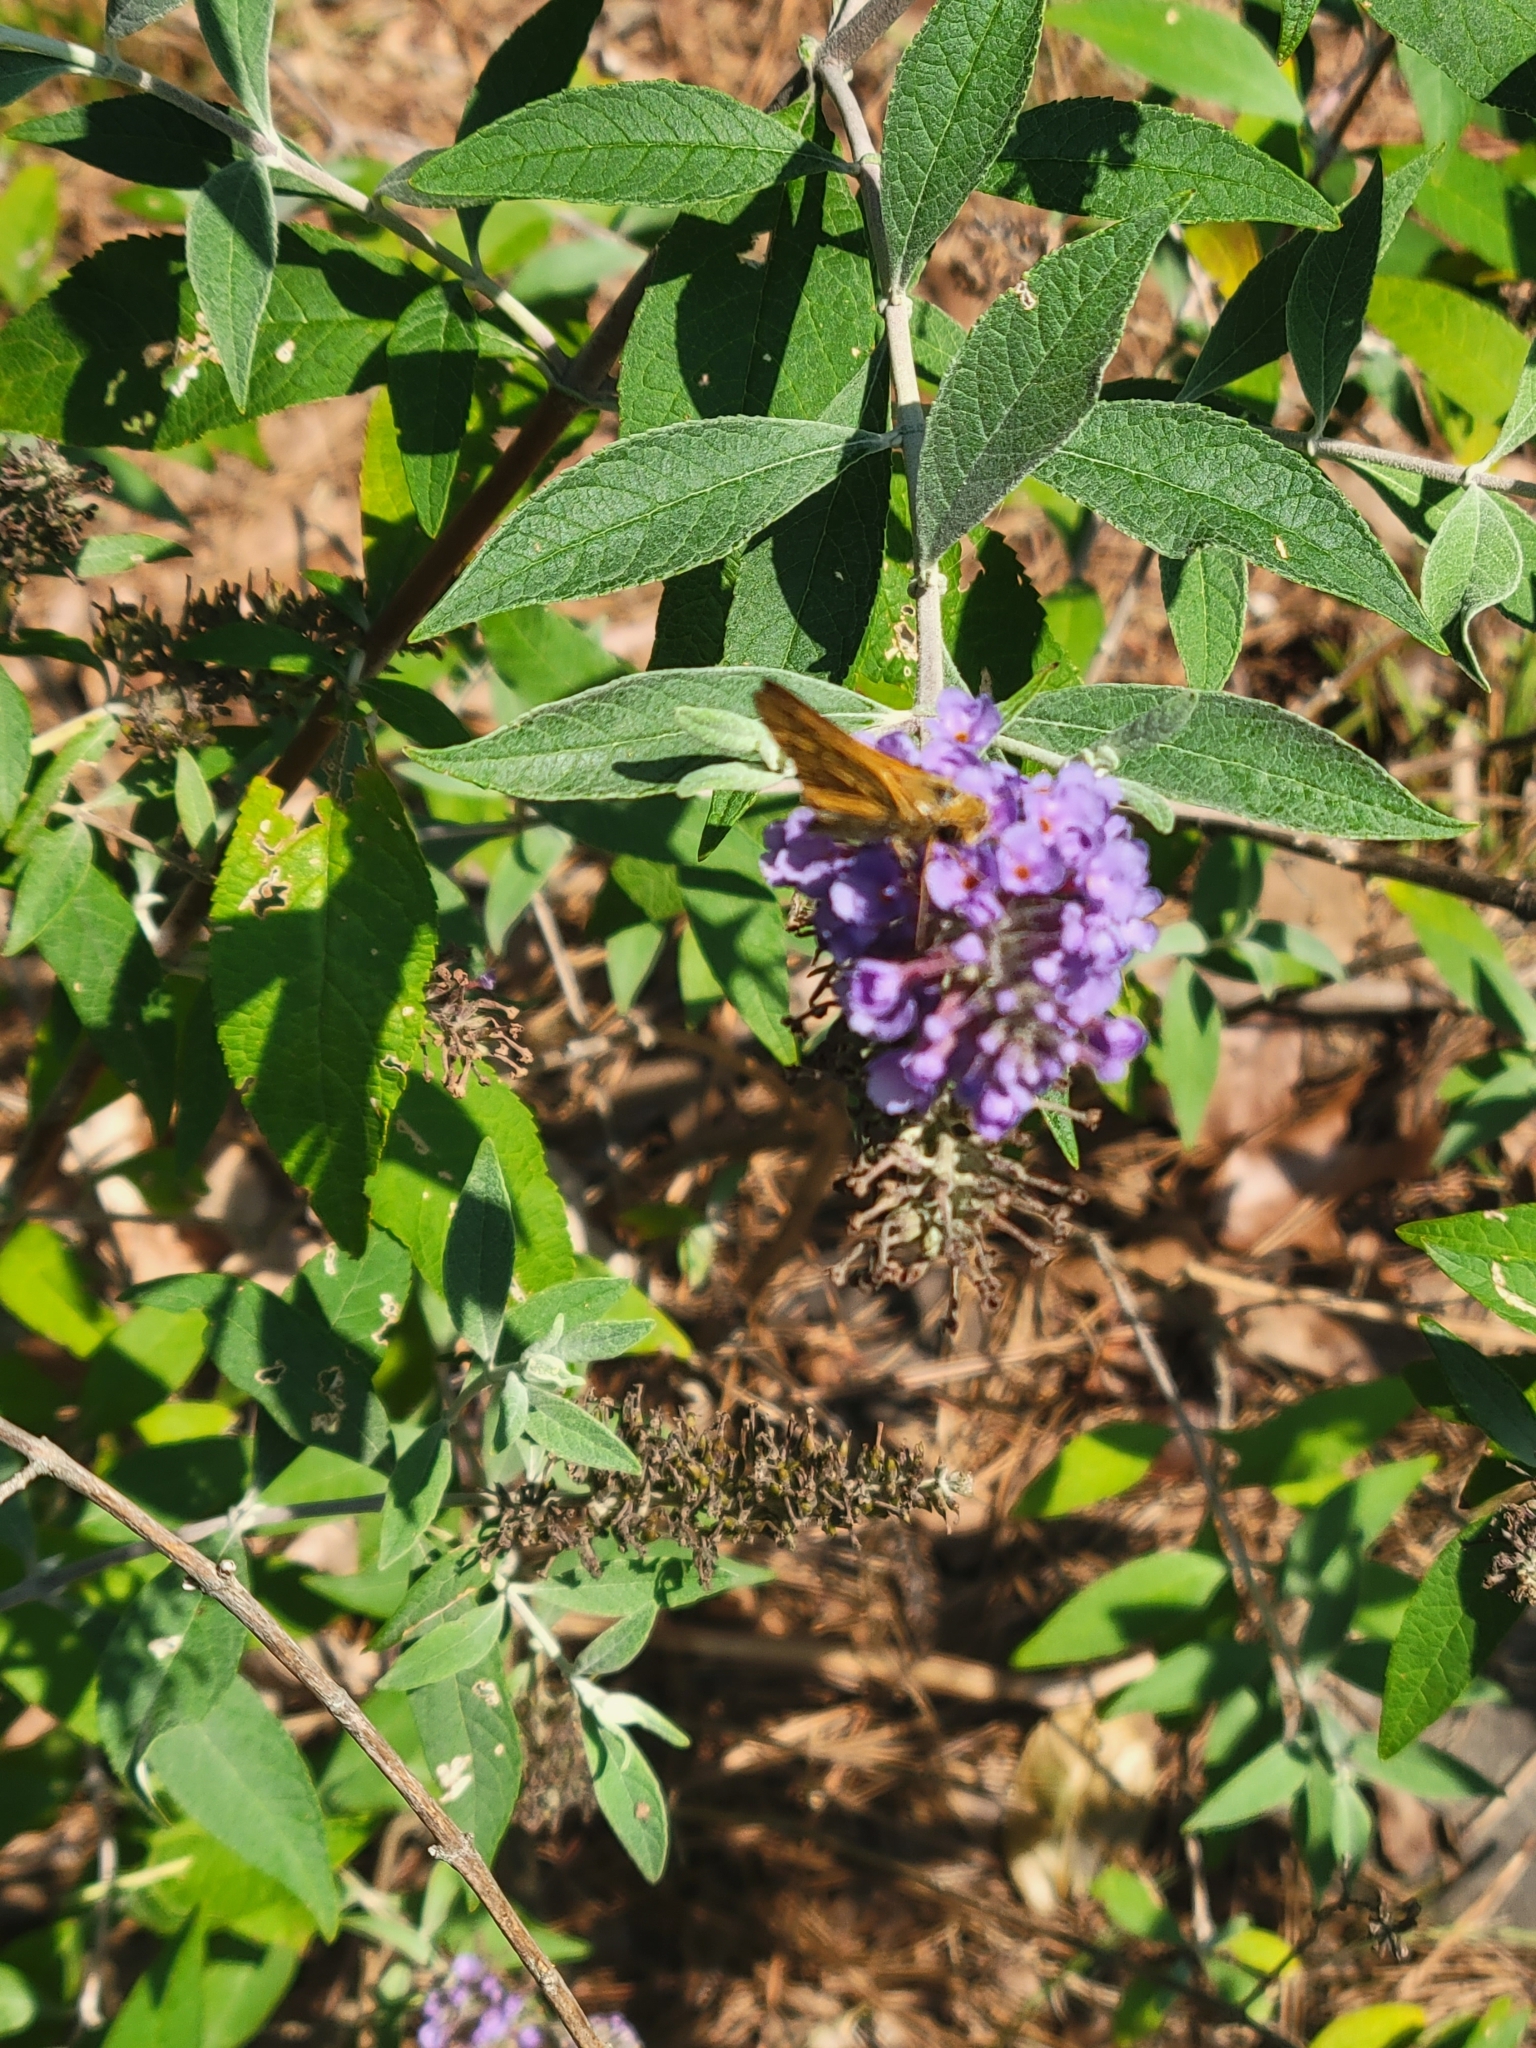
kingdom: Animalia
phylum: Arthropoda
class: Insecta
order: Lepidoptera
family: Hesperiidae
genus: Hylephila
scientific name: Hylephila phyleus
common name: Fiery skipper
